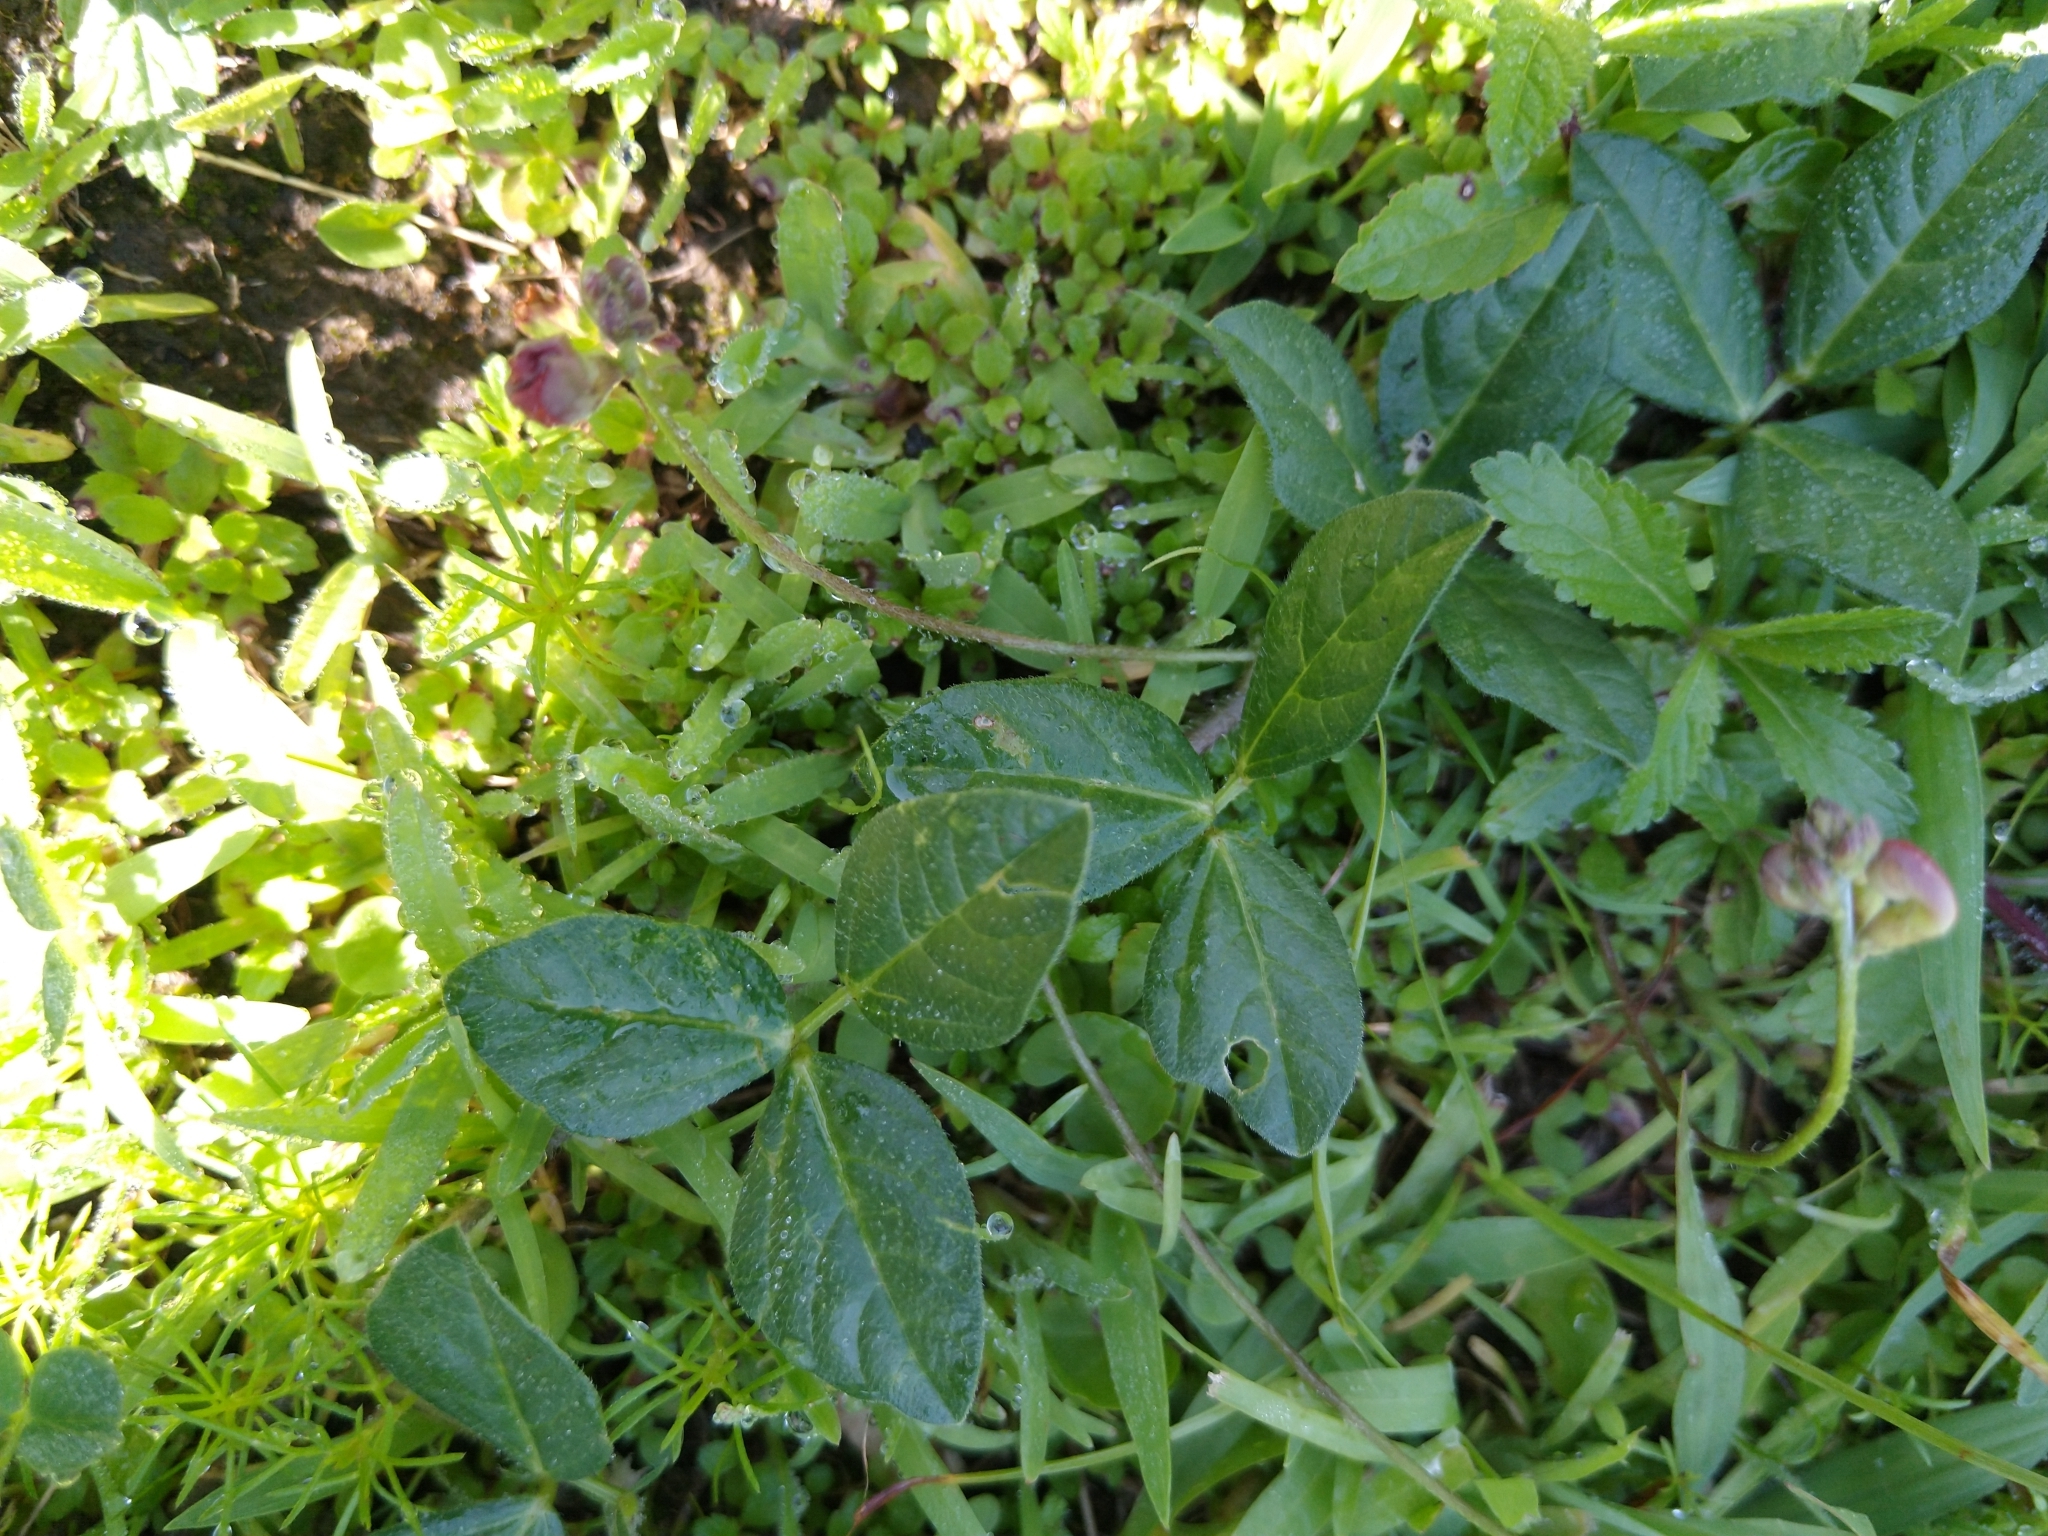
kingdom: Plantae
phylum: Tracheophyta
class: Magnoliopsida
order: Fabales
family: Fabaceae
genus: Macroptilium
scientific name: Macroptilium gibbosifolium
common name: Variableleaf bushbean
